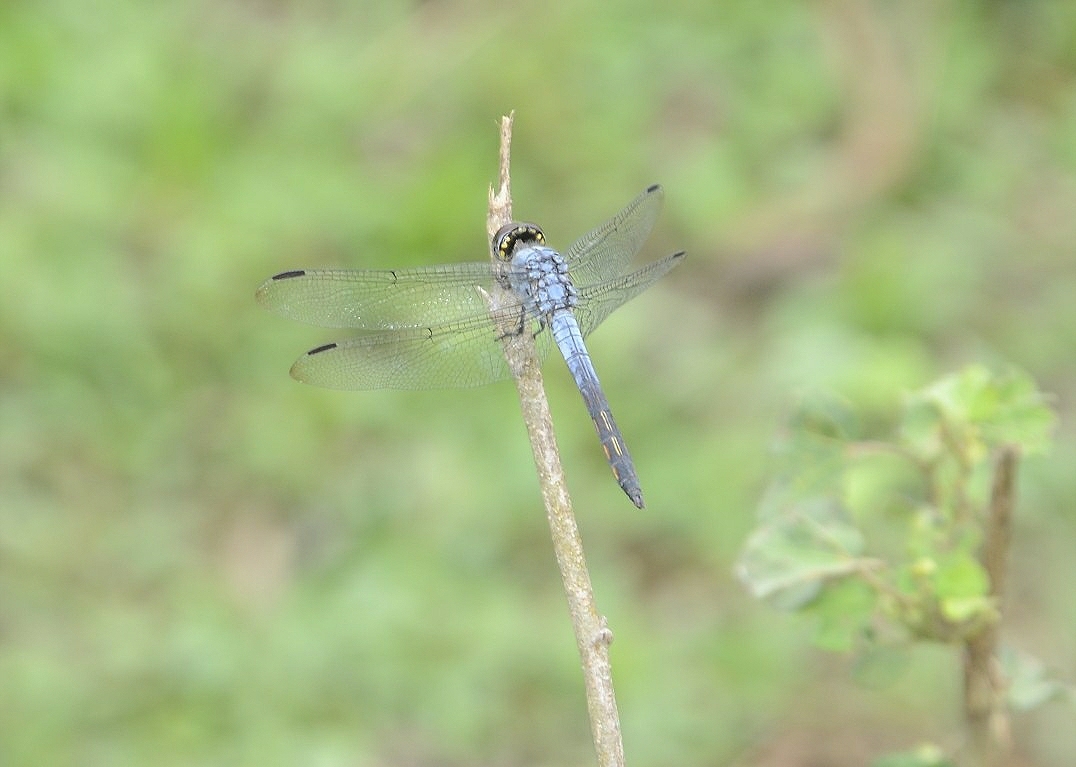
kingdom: Animalia
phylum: Arthropoda
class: Insecta
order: Odonata
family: Libellulidae
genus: Potamarcha
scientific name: Potamarcha congener
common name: Blue chaser
